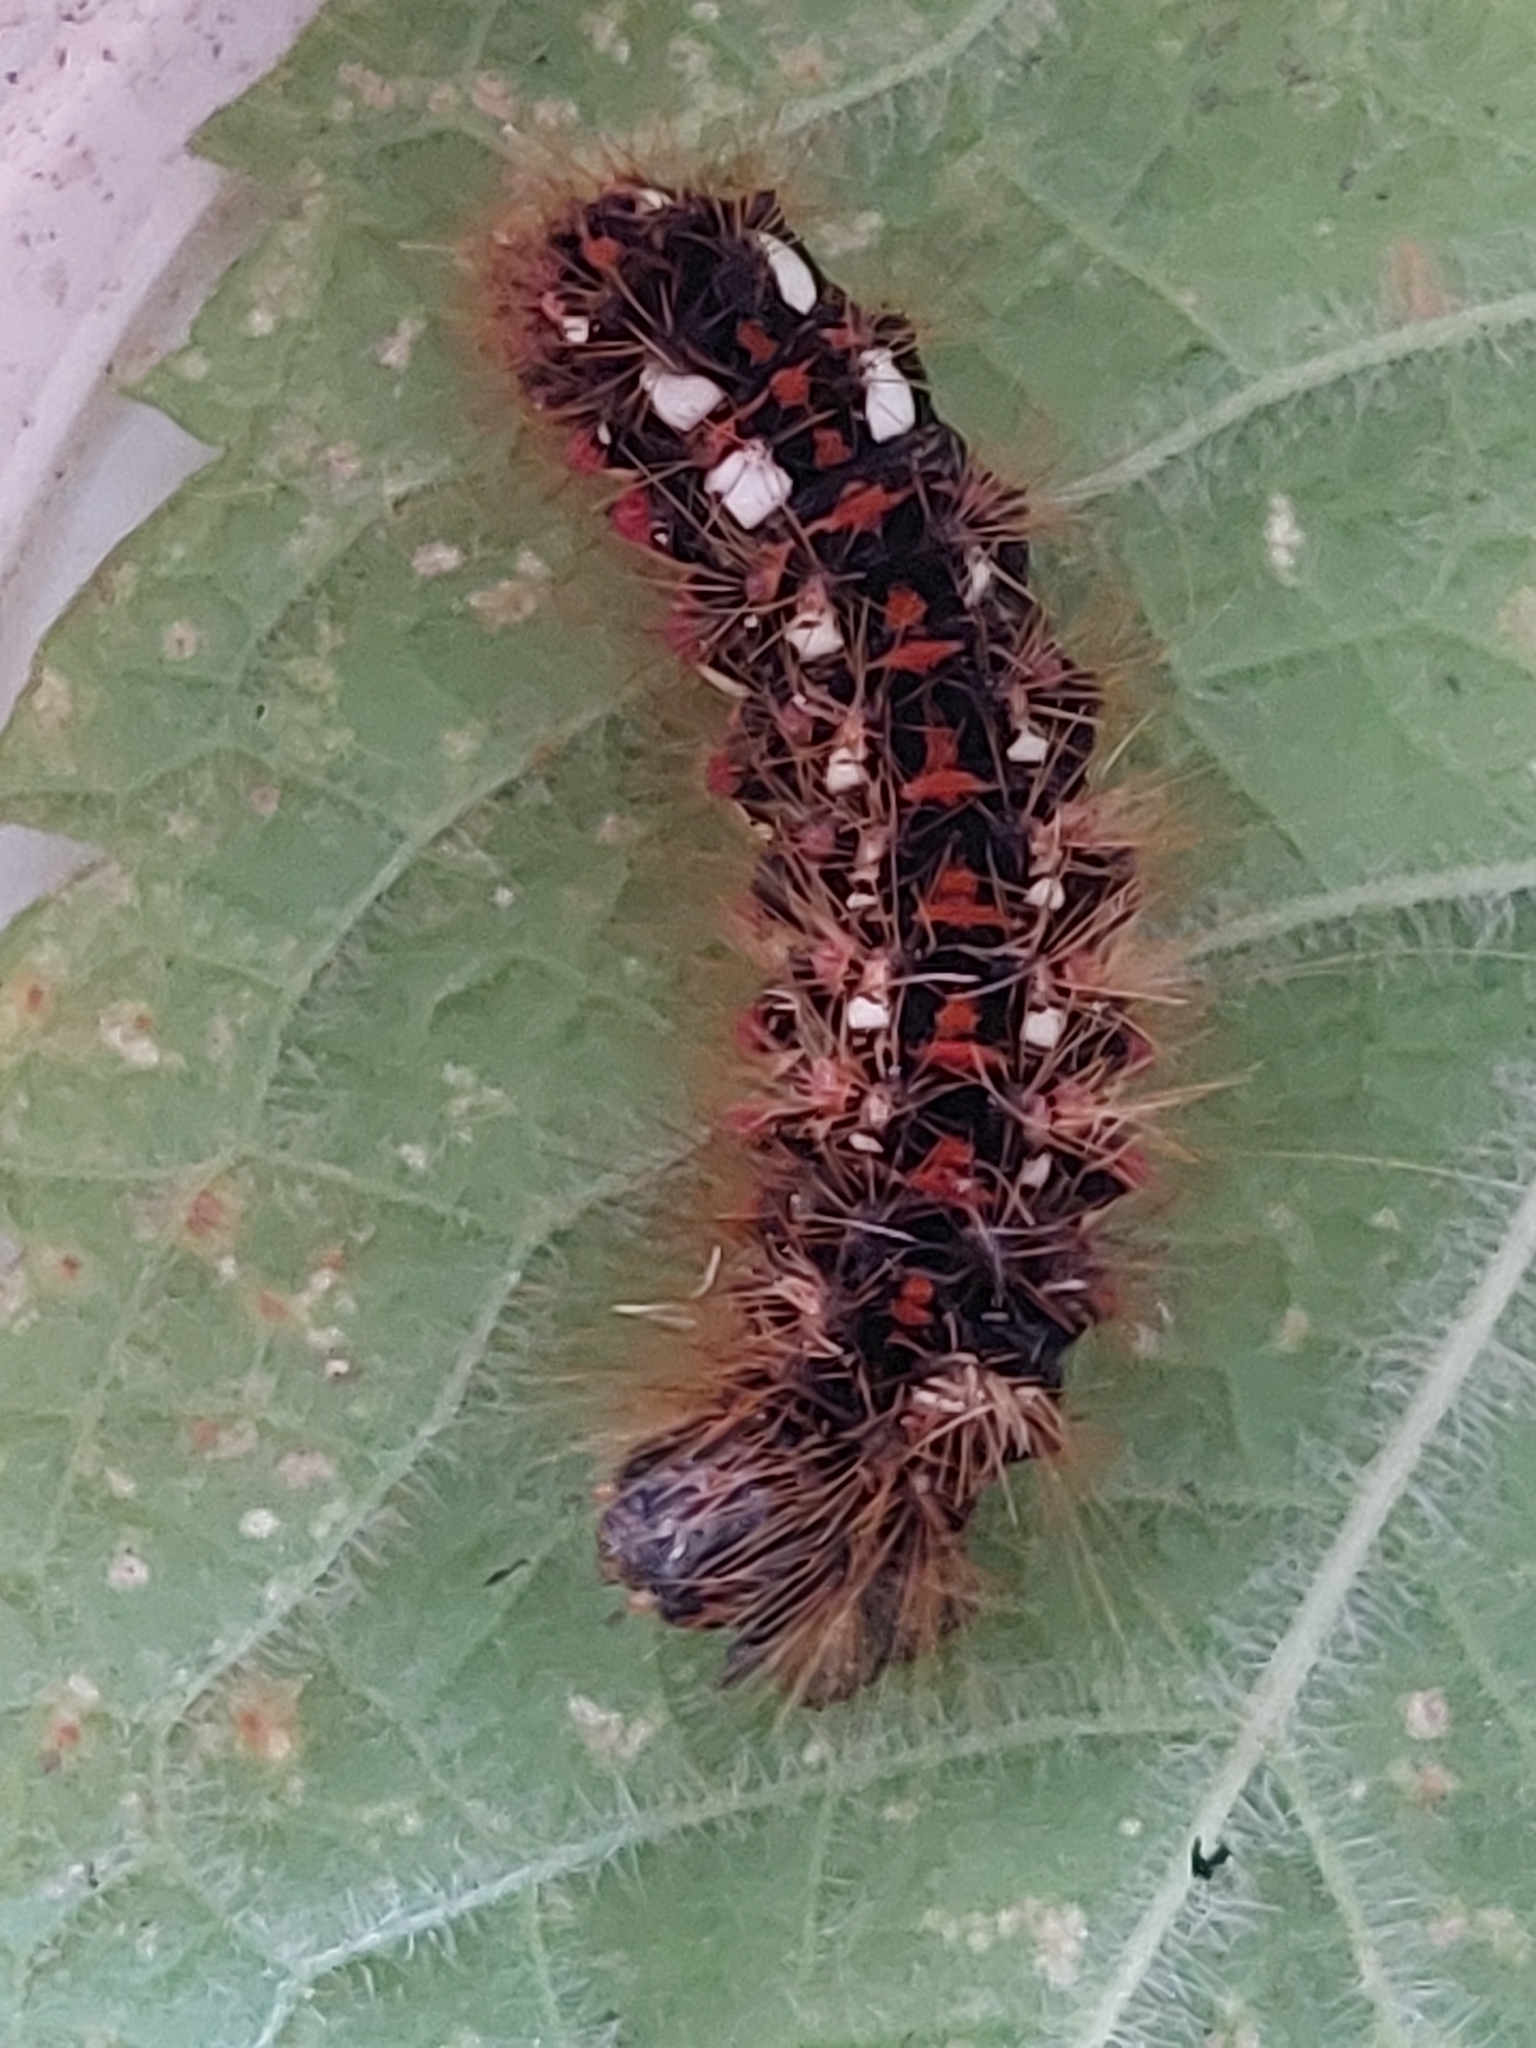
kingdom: Animalia
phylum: Arthropoda
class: Insecta
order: Lepidoptera
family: Noctuidae
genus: Acronicta
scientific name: Acronicta rumicis
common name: Knot grass
